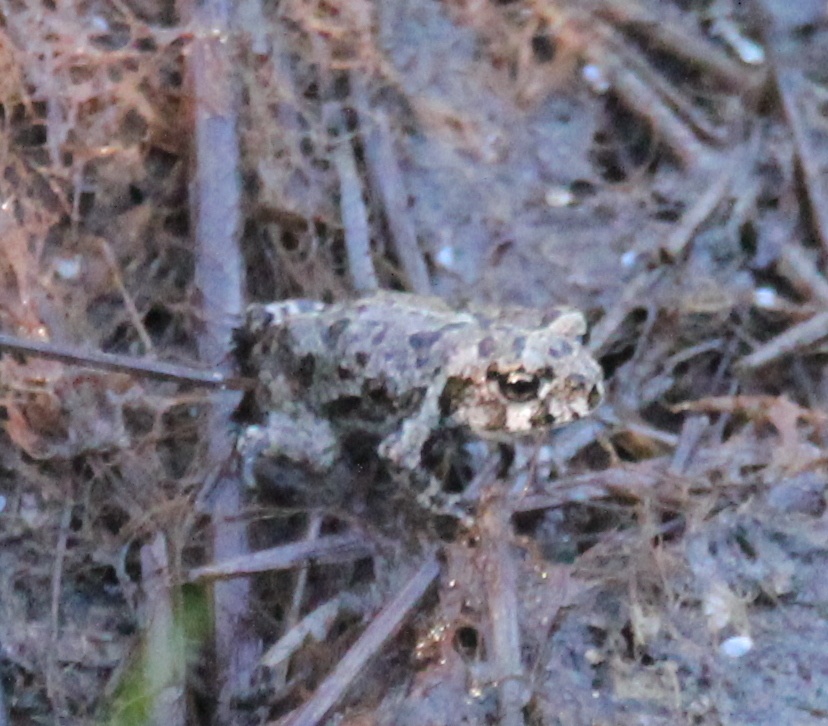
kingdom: Animalia
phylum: Chordata
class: Amphibia
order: Anura
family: Bufonidae
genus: Anaxyrus
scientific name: Anaxyrus boreas
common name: Western toad
